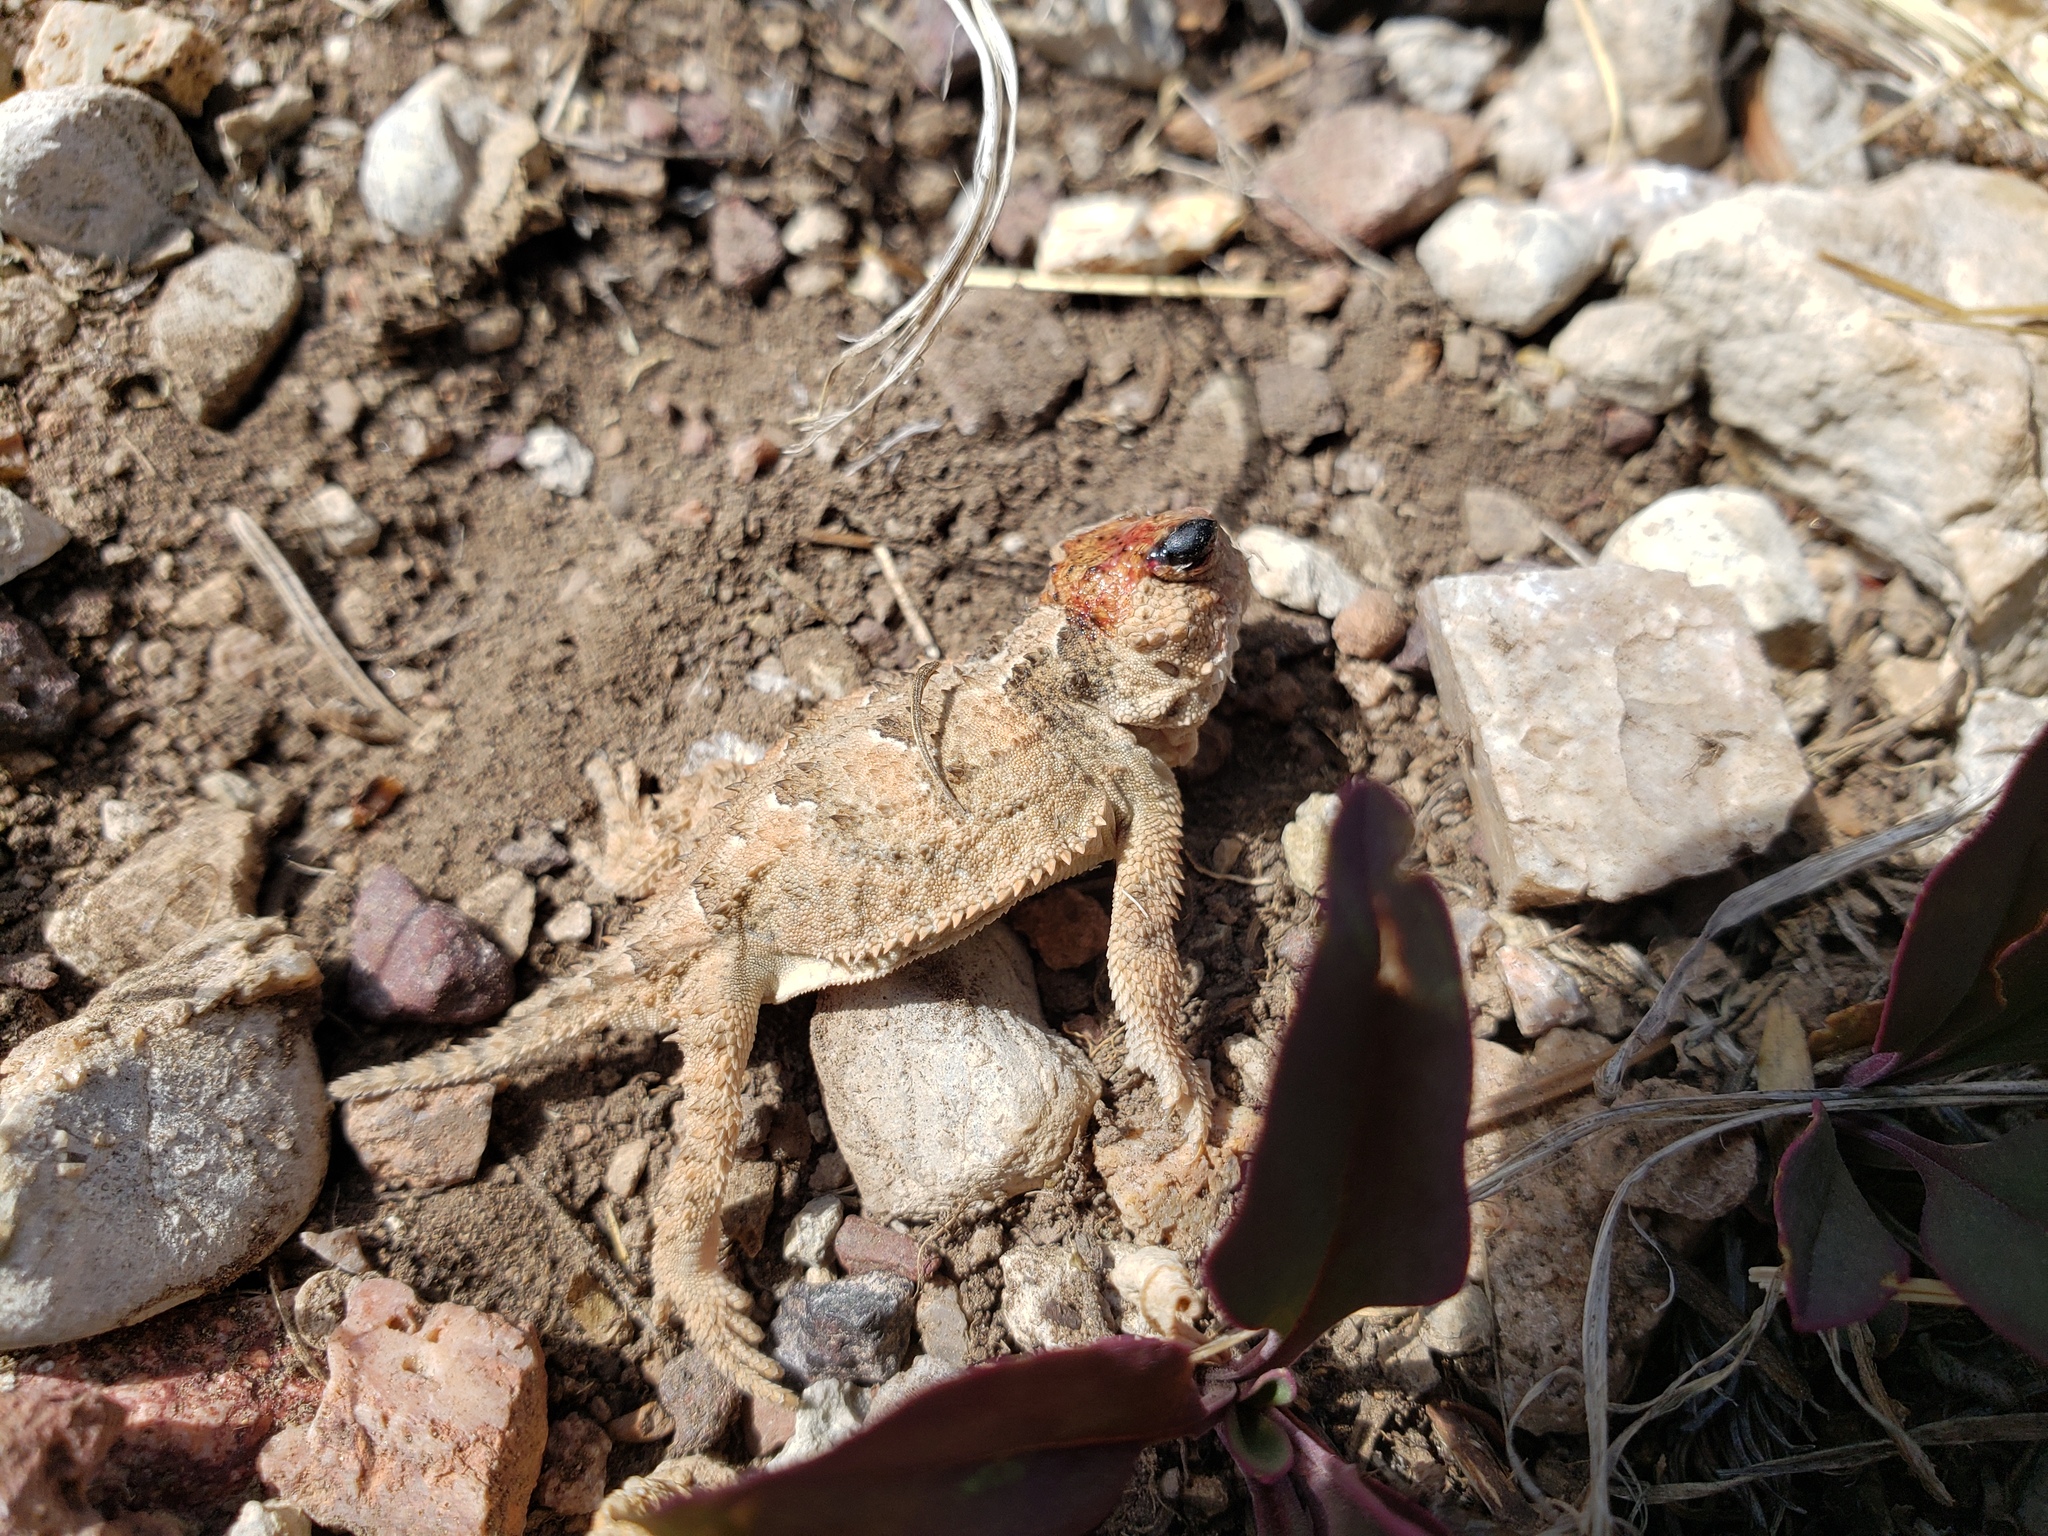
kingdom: Animalia
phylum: Chordata
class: Squamata
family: Phrynosomatidae
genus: Phrynosoma
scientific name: Phrynosoma hernandesi
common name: Greater short-horned lizard
